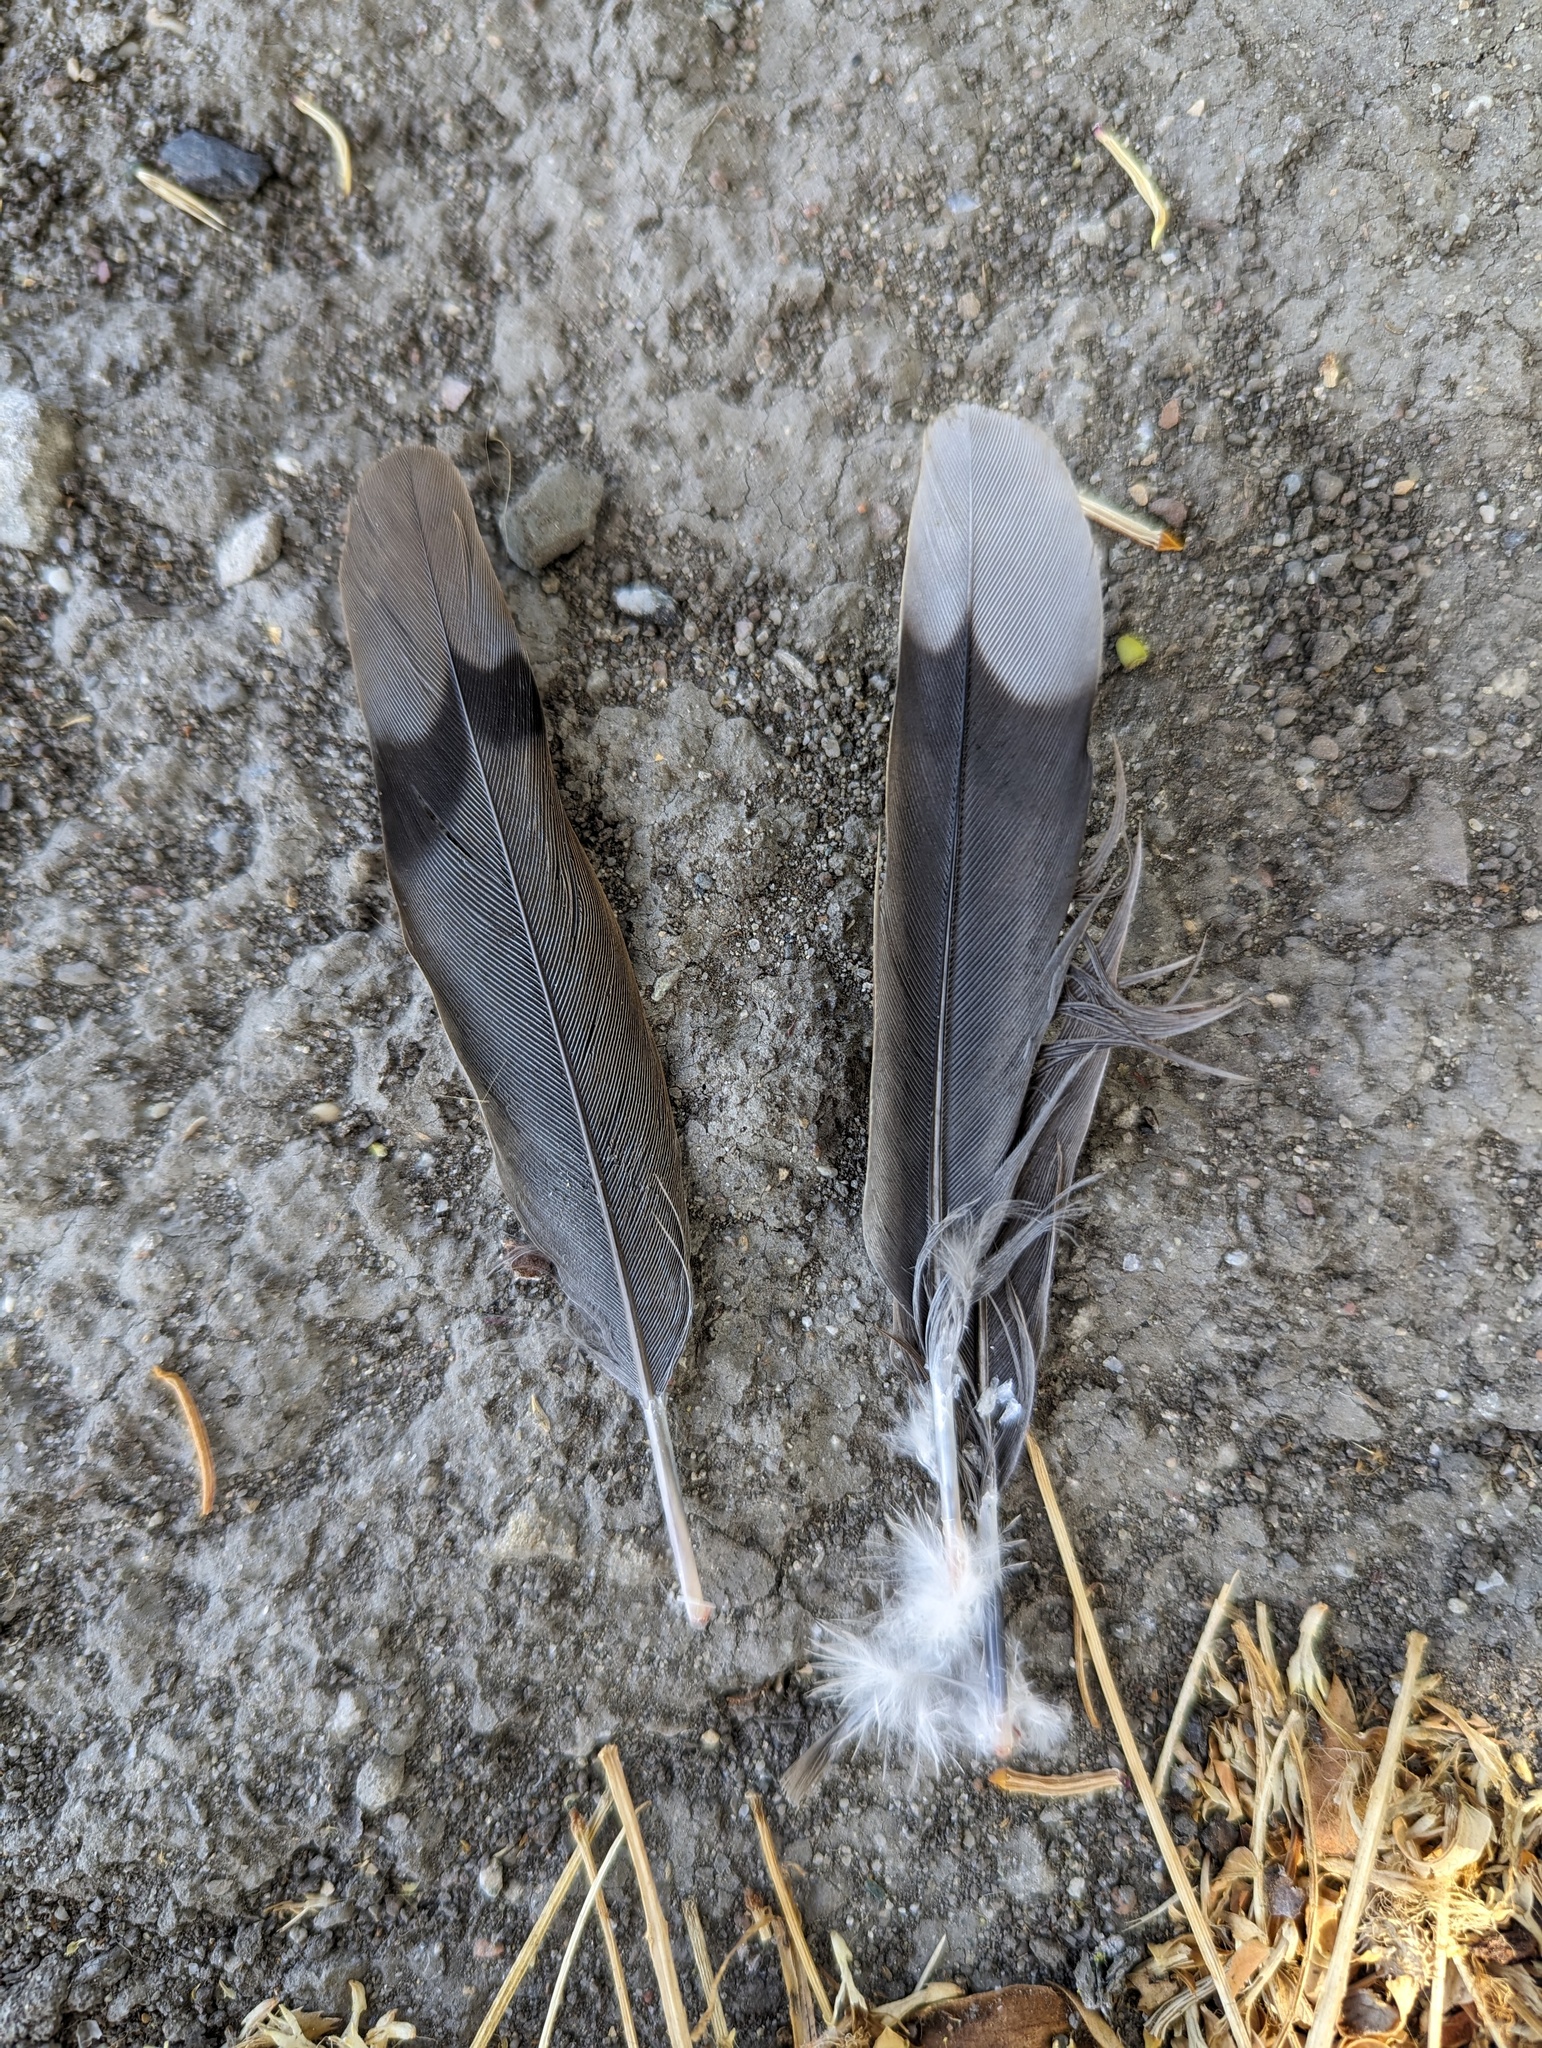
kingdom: Animalia
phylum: Chordata
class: Aves
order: Columbiformes
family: Columbidae
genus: Zenaida
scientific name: Zenaida macroura
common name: Mourning dove
